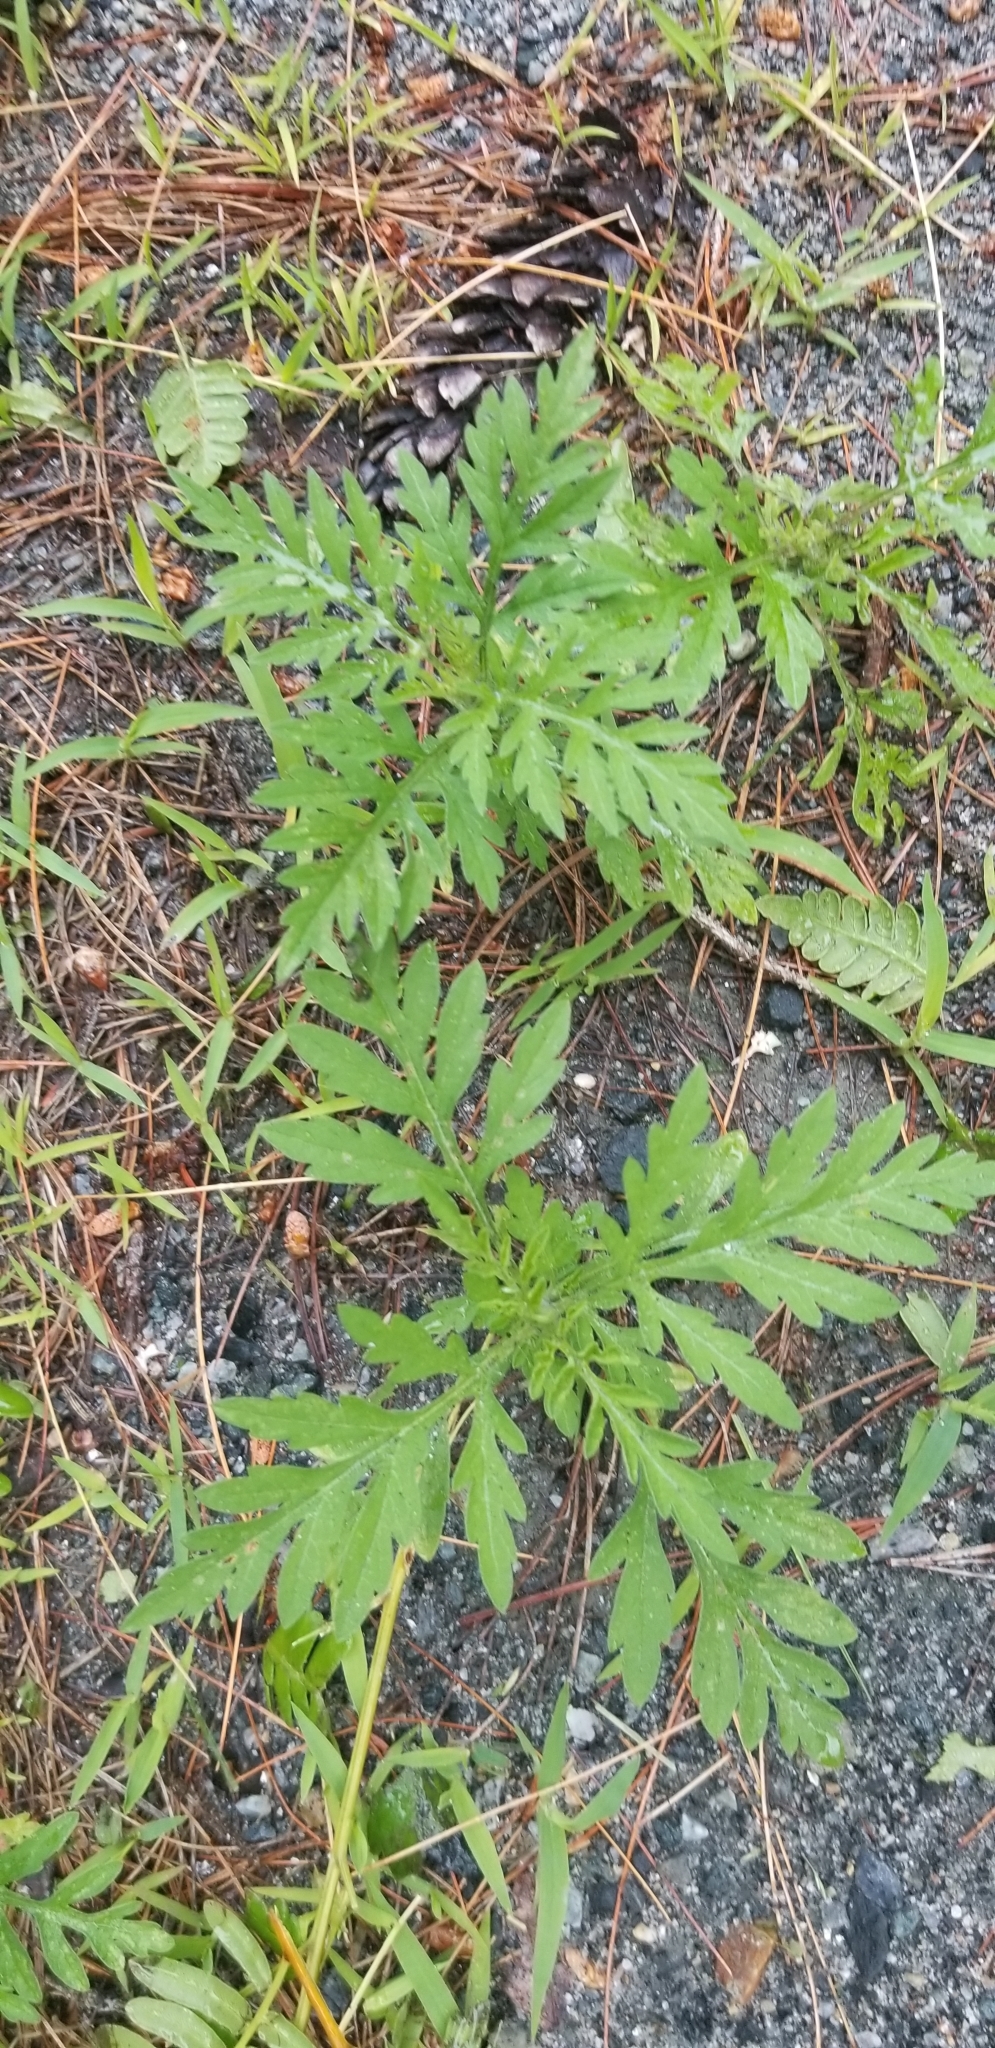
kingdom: Plantae
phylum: Tracheophyta
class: Magnoliopsida
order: Asterales
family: Asteraceae
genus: Ambrosia
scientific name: Ambrosia artemisiifolia
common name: Annual ragweed
